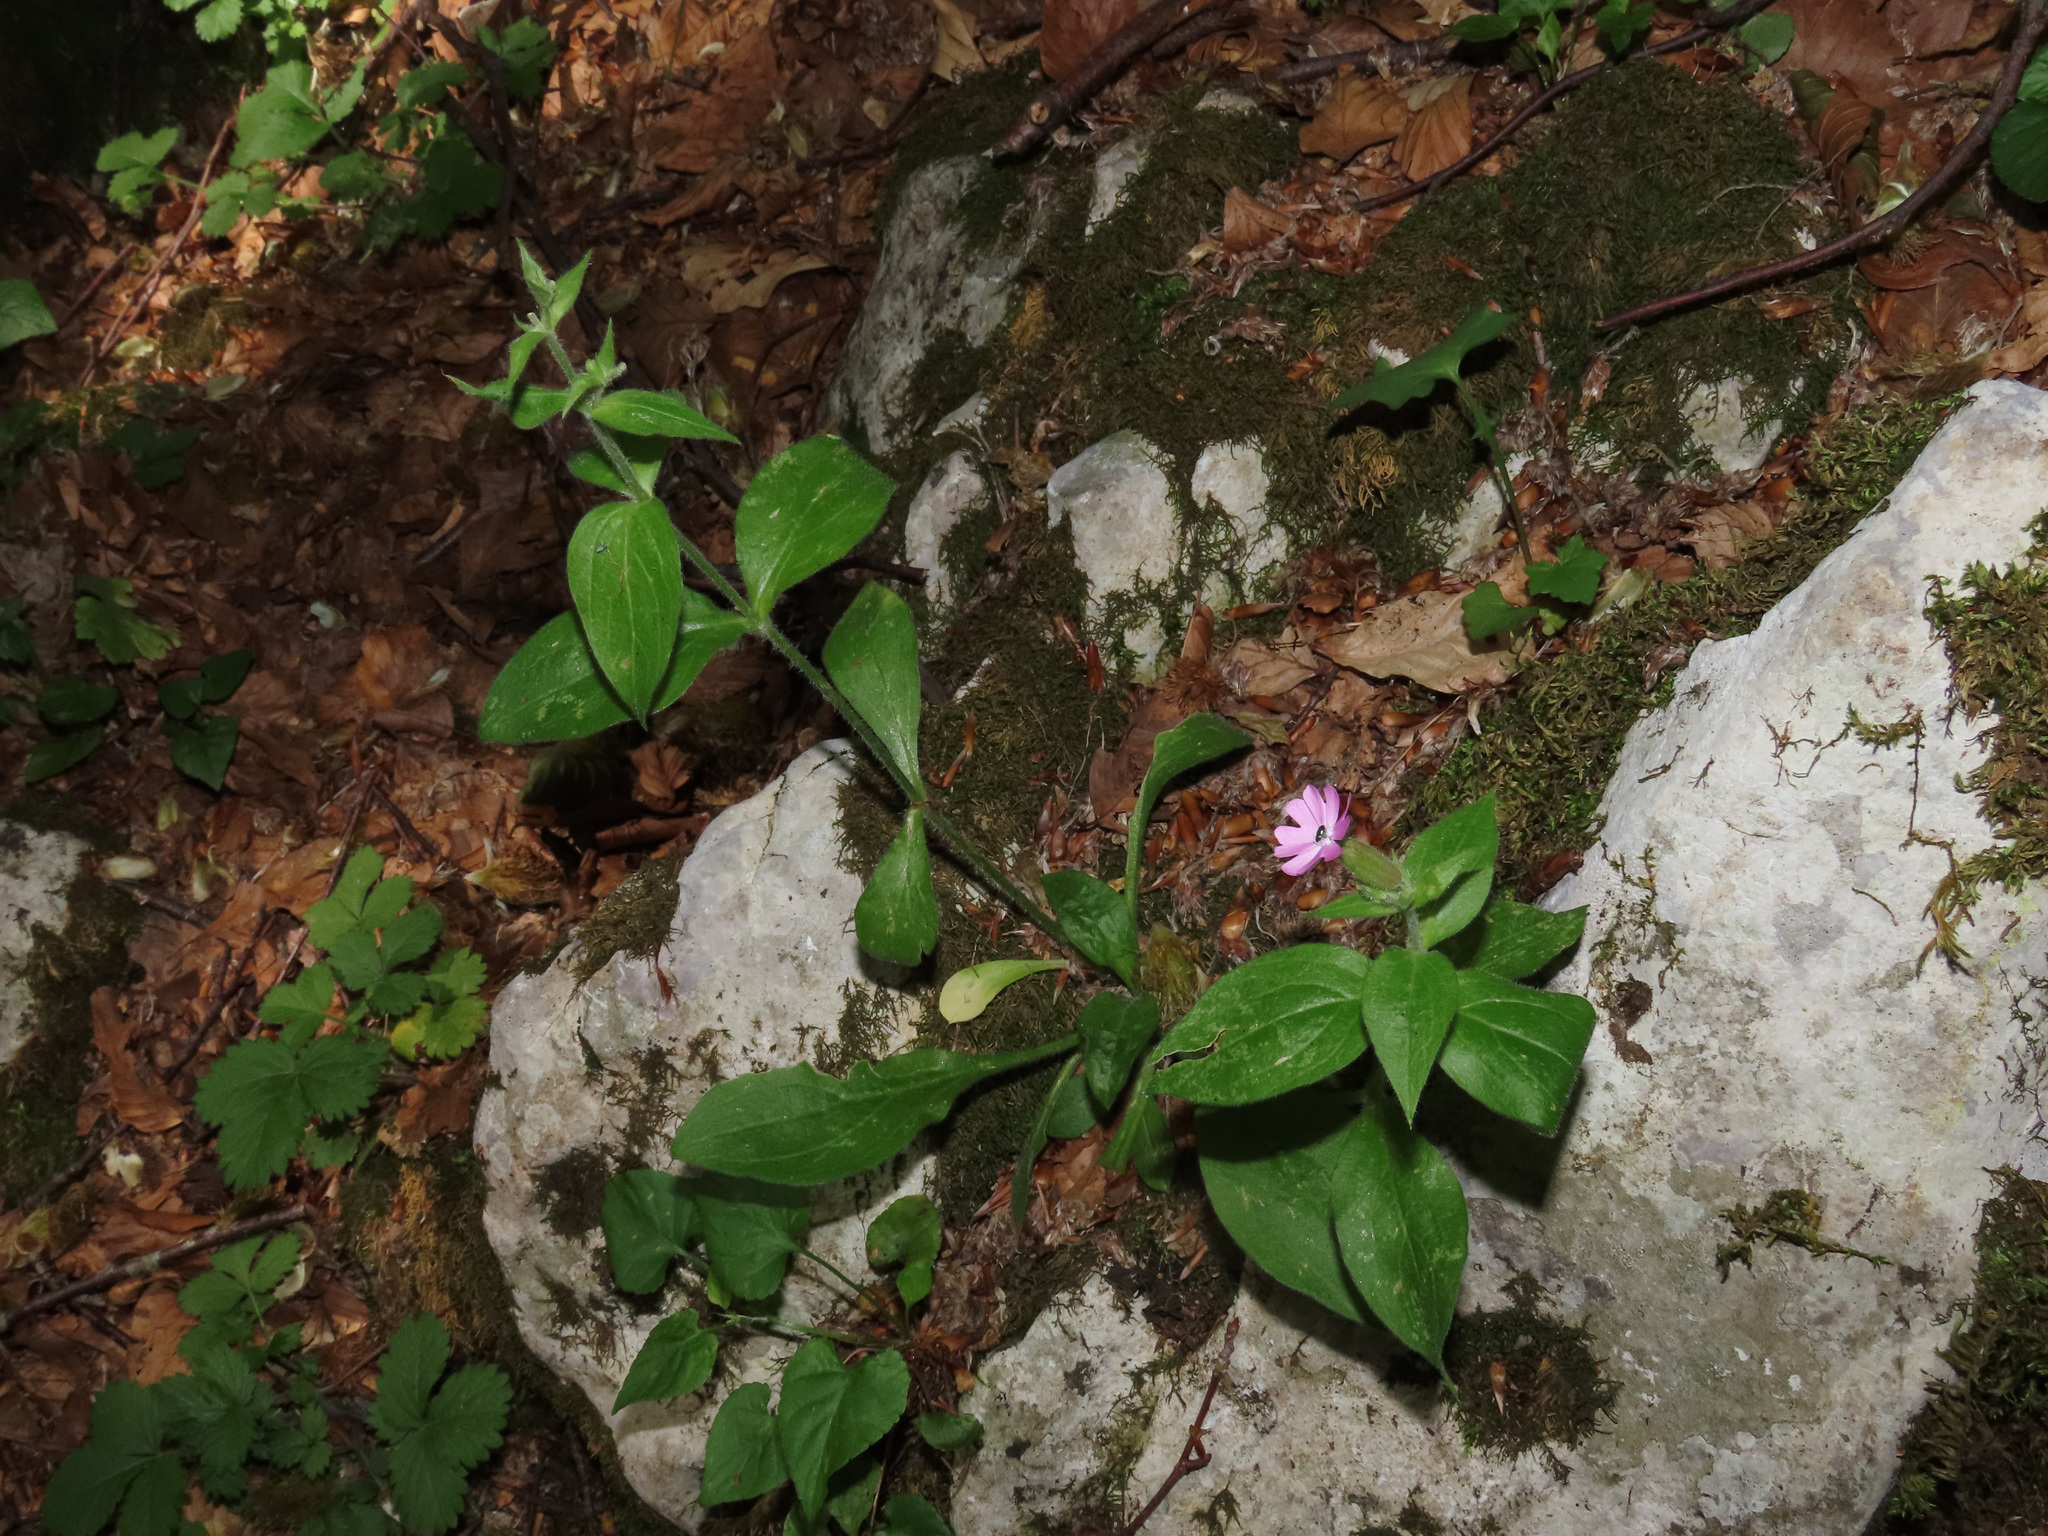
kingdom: Plantae
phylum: Tracheophyta
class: Magnoliopsida
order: Caryophyllales
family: Caryophyllaceae
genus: Silene
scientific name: Silene dioica
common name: Red campion
